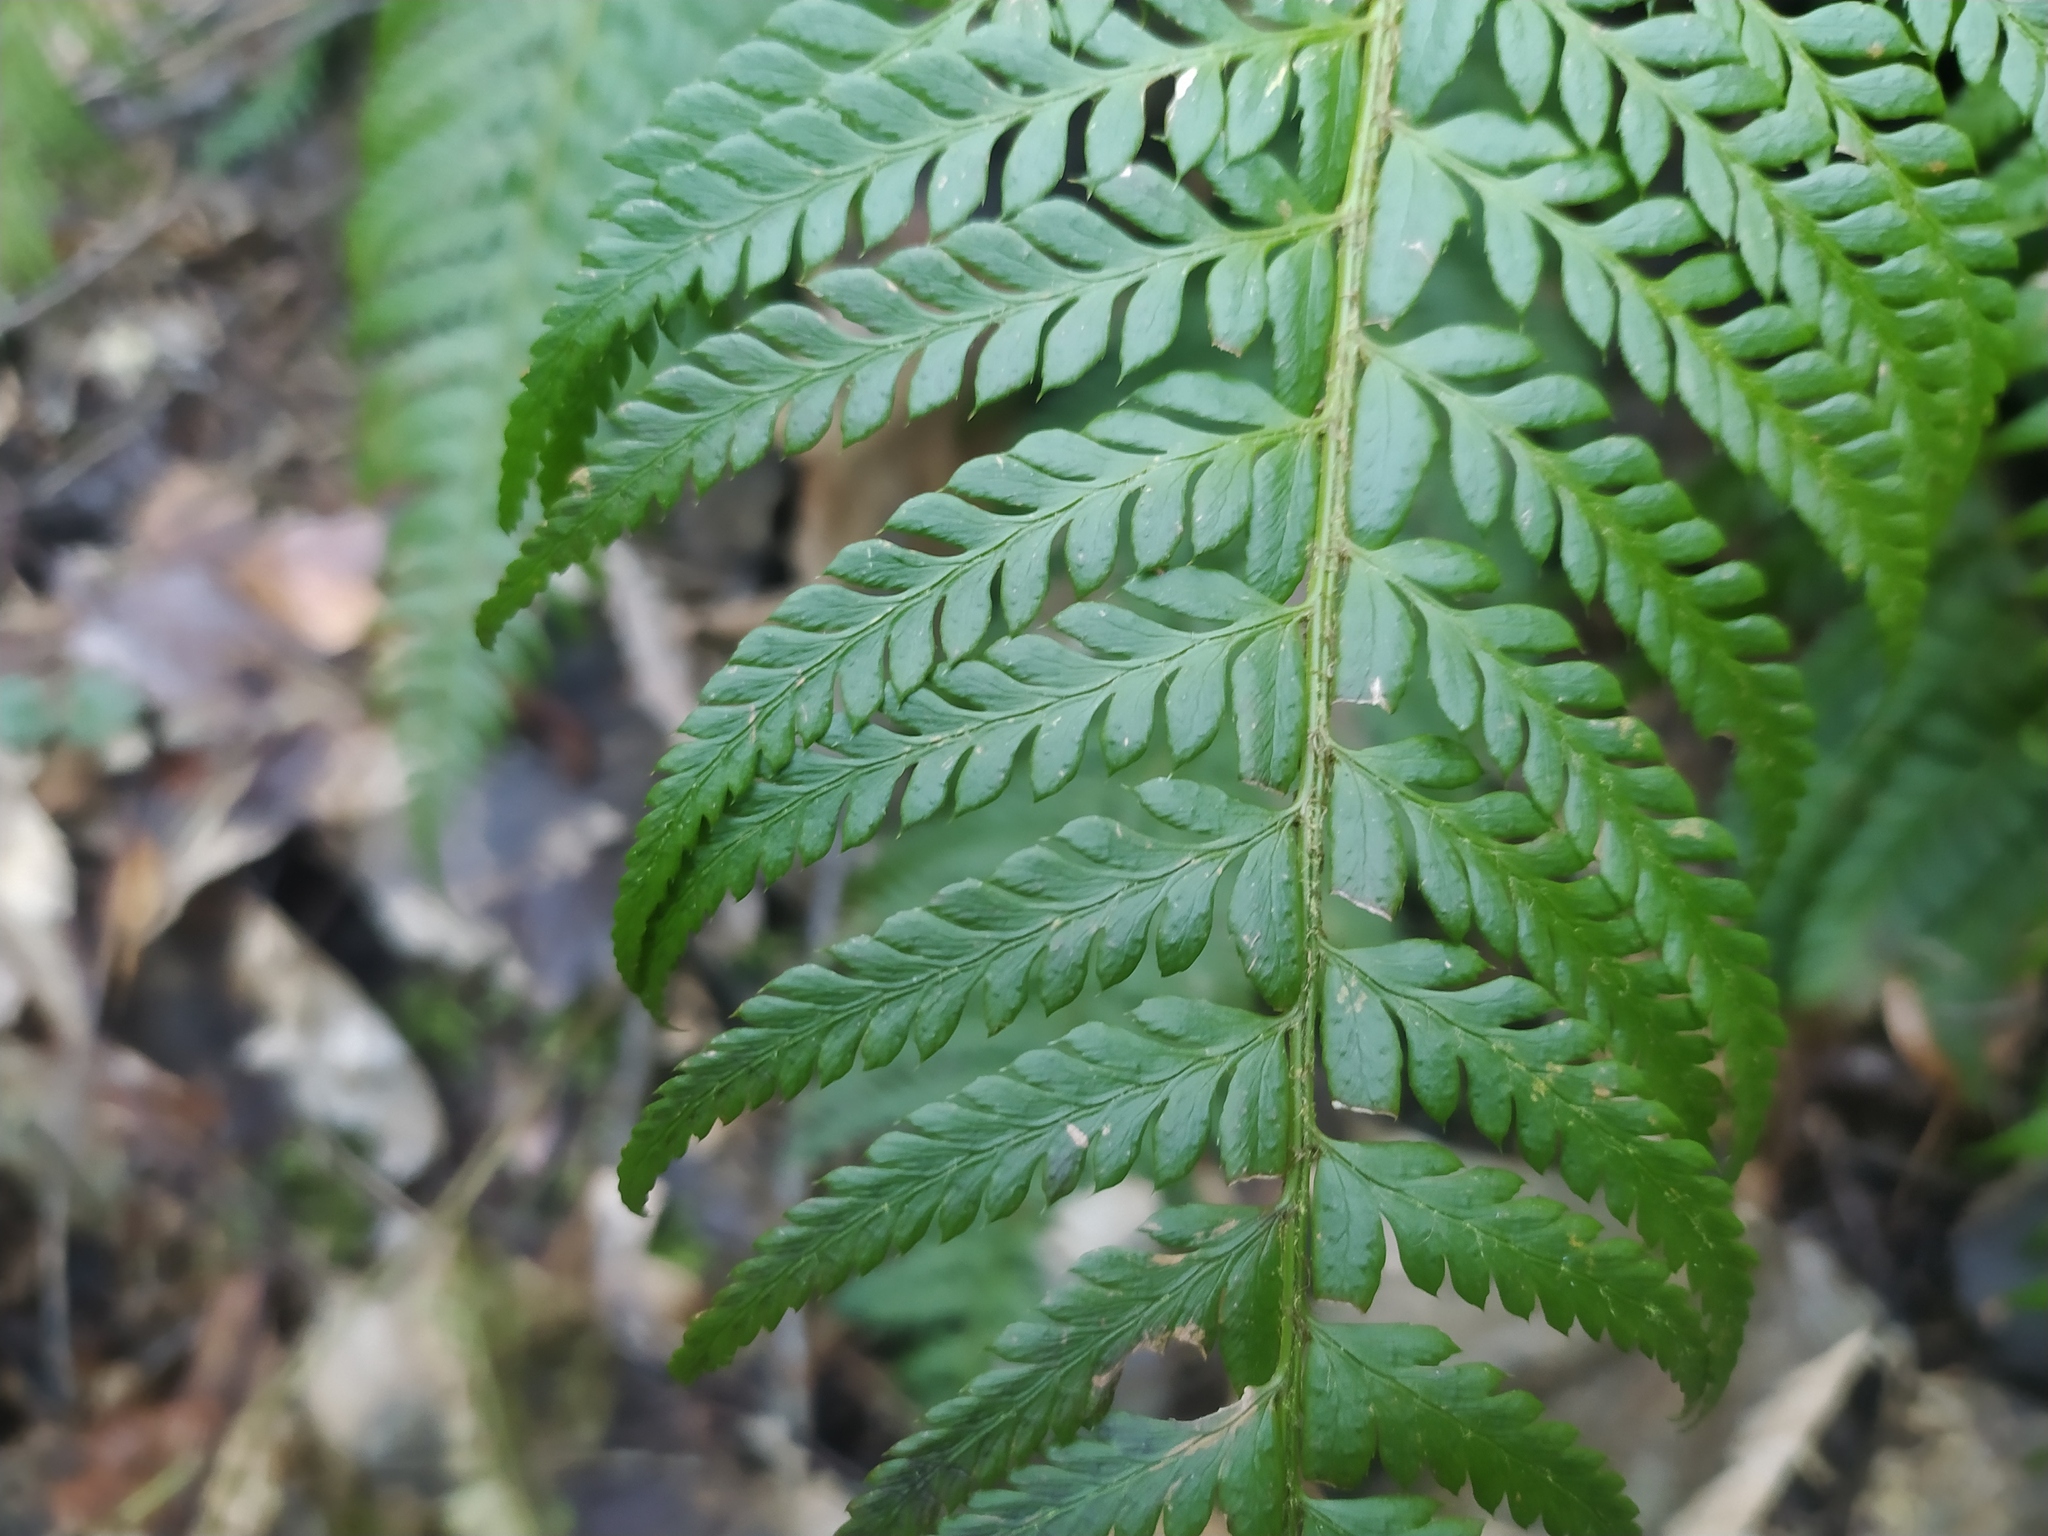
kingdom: Plantae
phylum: Tracheophyta
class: Polypodiopsida
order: Polypodiales
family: Dryopteridaceae
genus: Polystichum
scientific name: Polystichum aculeatum
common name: Hard shield-fern
